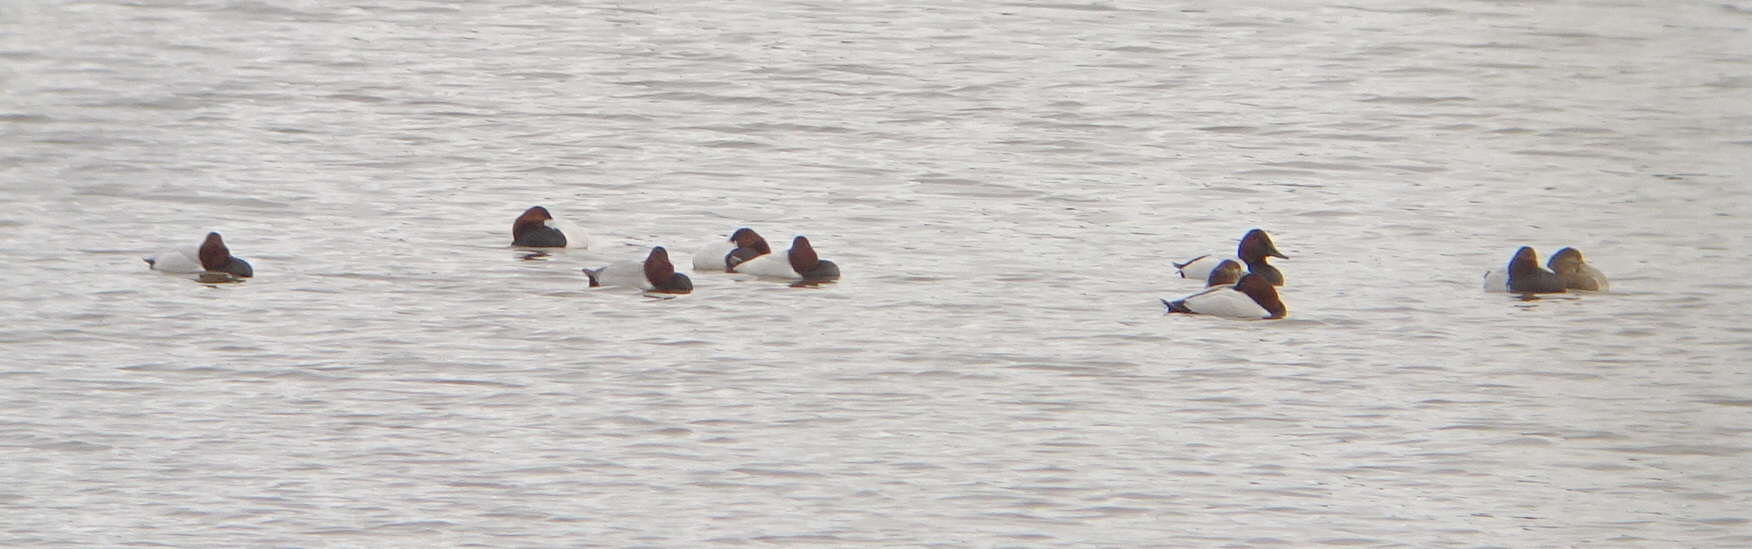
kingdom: Animalia
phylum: Chordata
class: Aves
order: Anseriformes
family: Anatidae
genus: Aythya
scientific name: Aythya valisineria
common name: Canvasback
